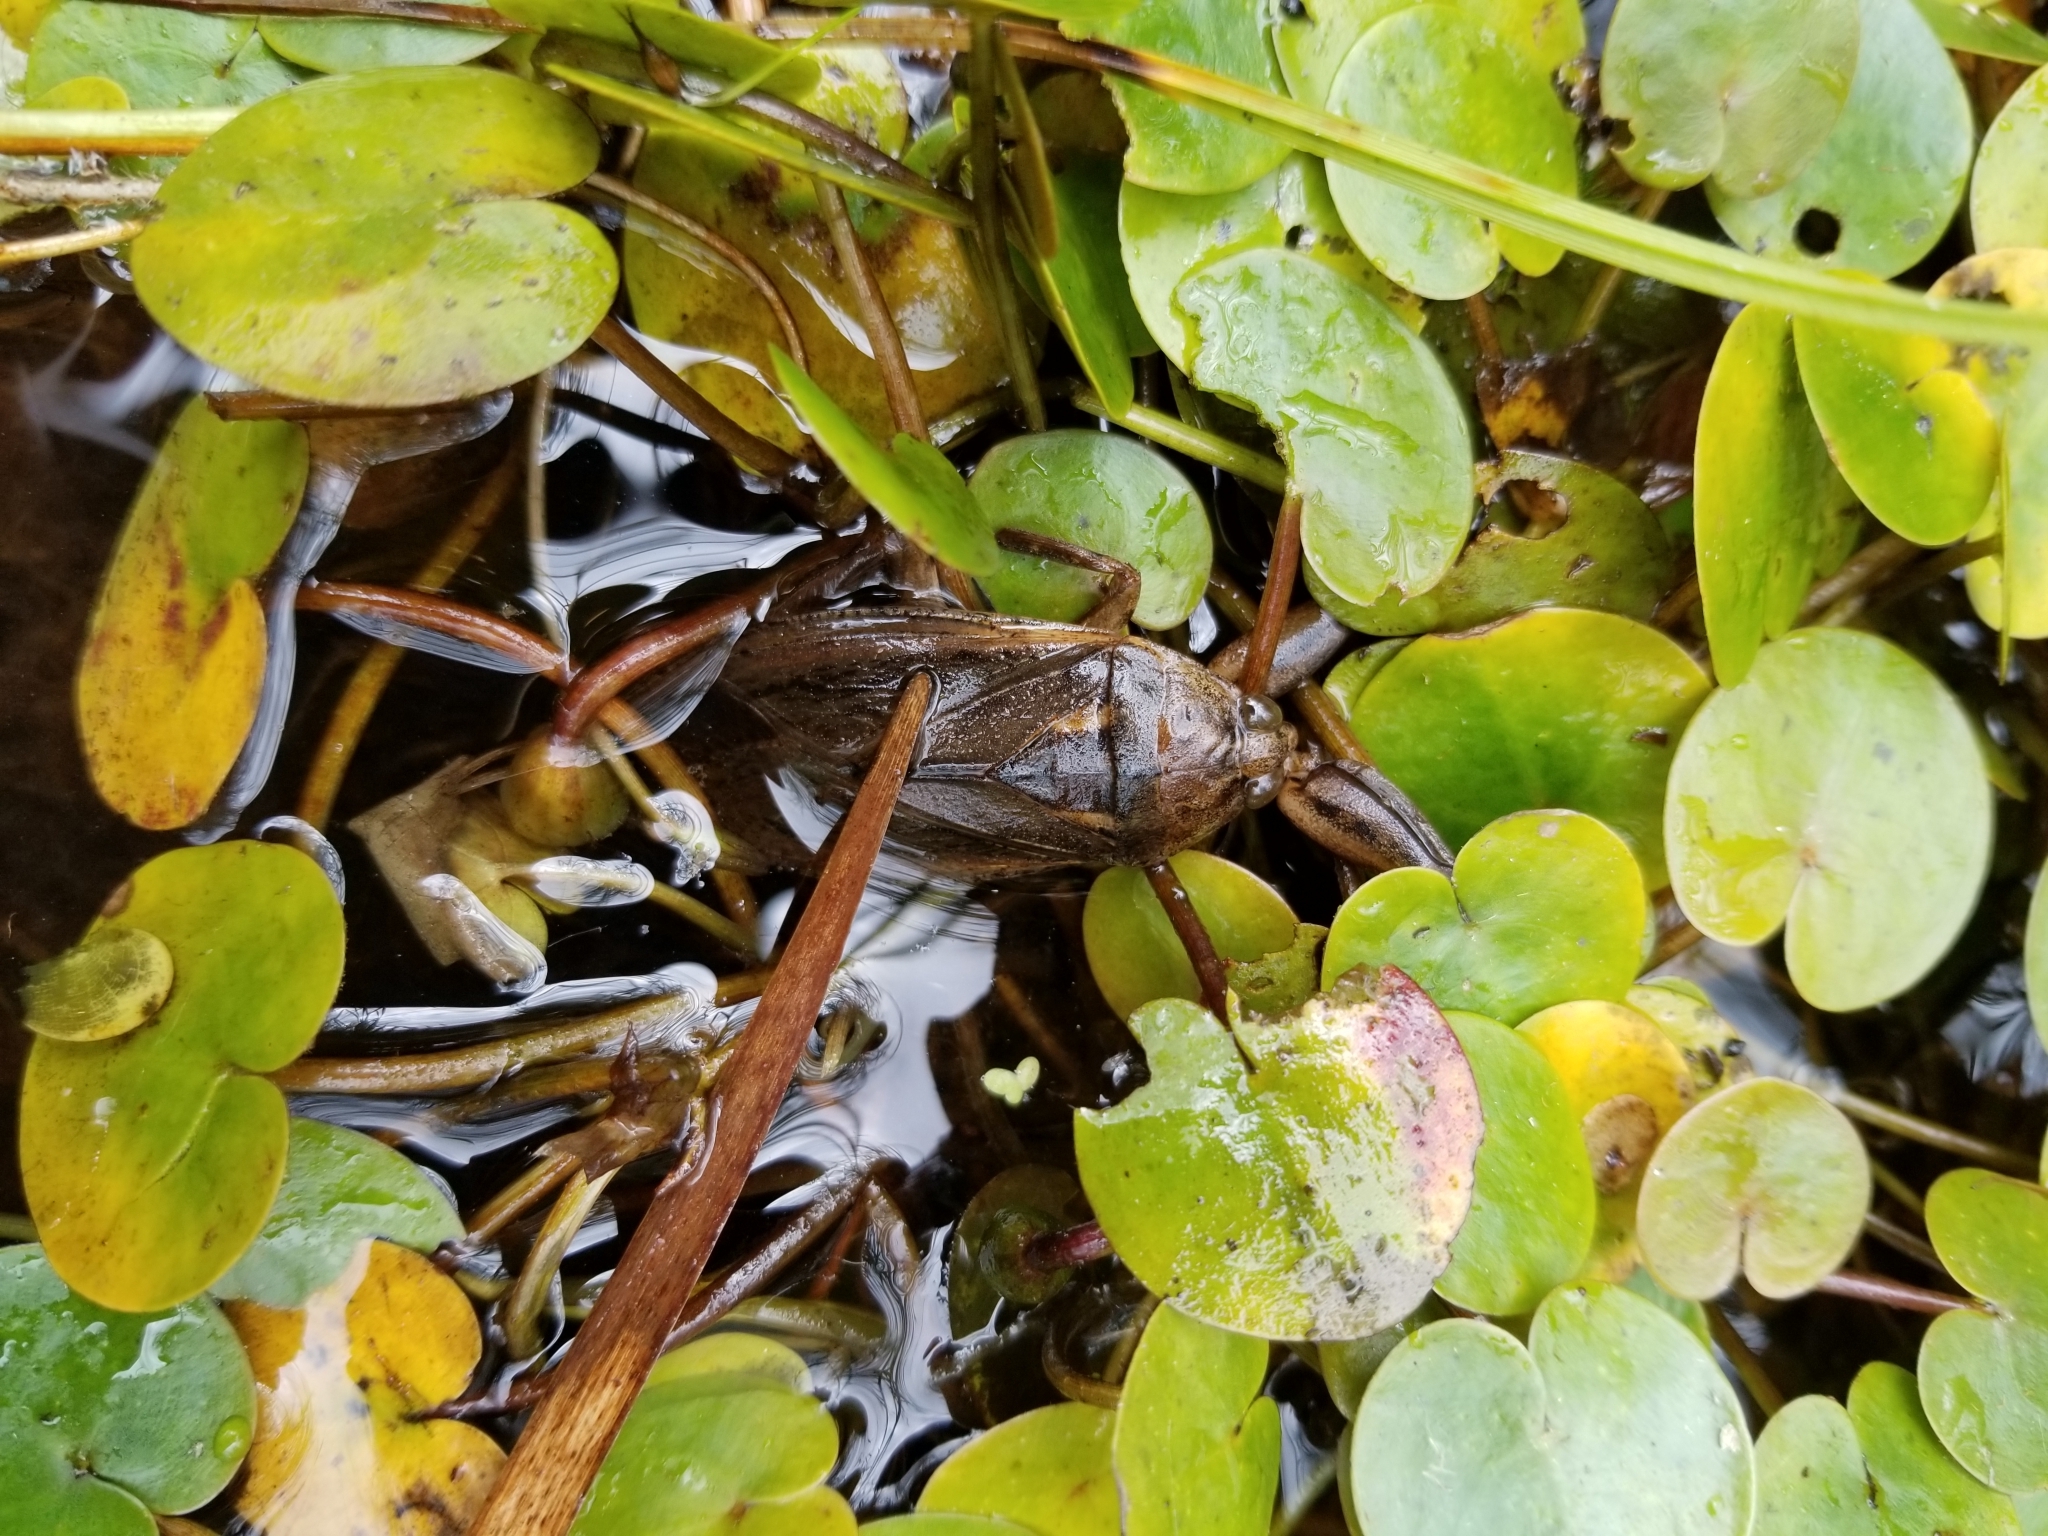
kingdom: Animalia
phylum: Arthropoda
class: Insecta
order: Hemiptera
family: Belostomatidae
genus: Lethocerus
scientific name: Lethocerus americanus
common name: Giant water bug
